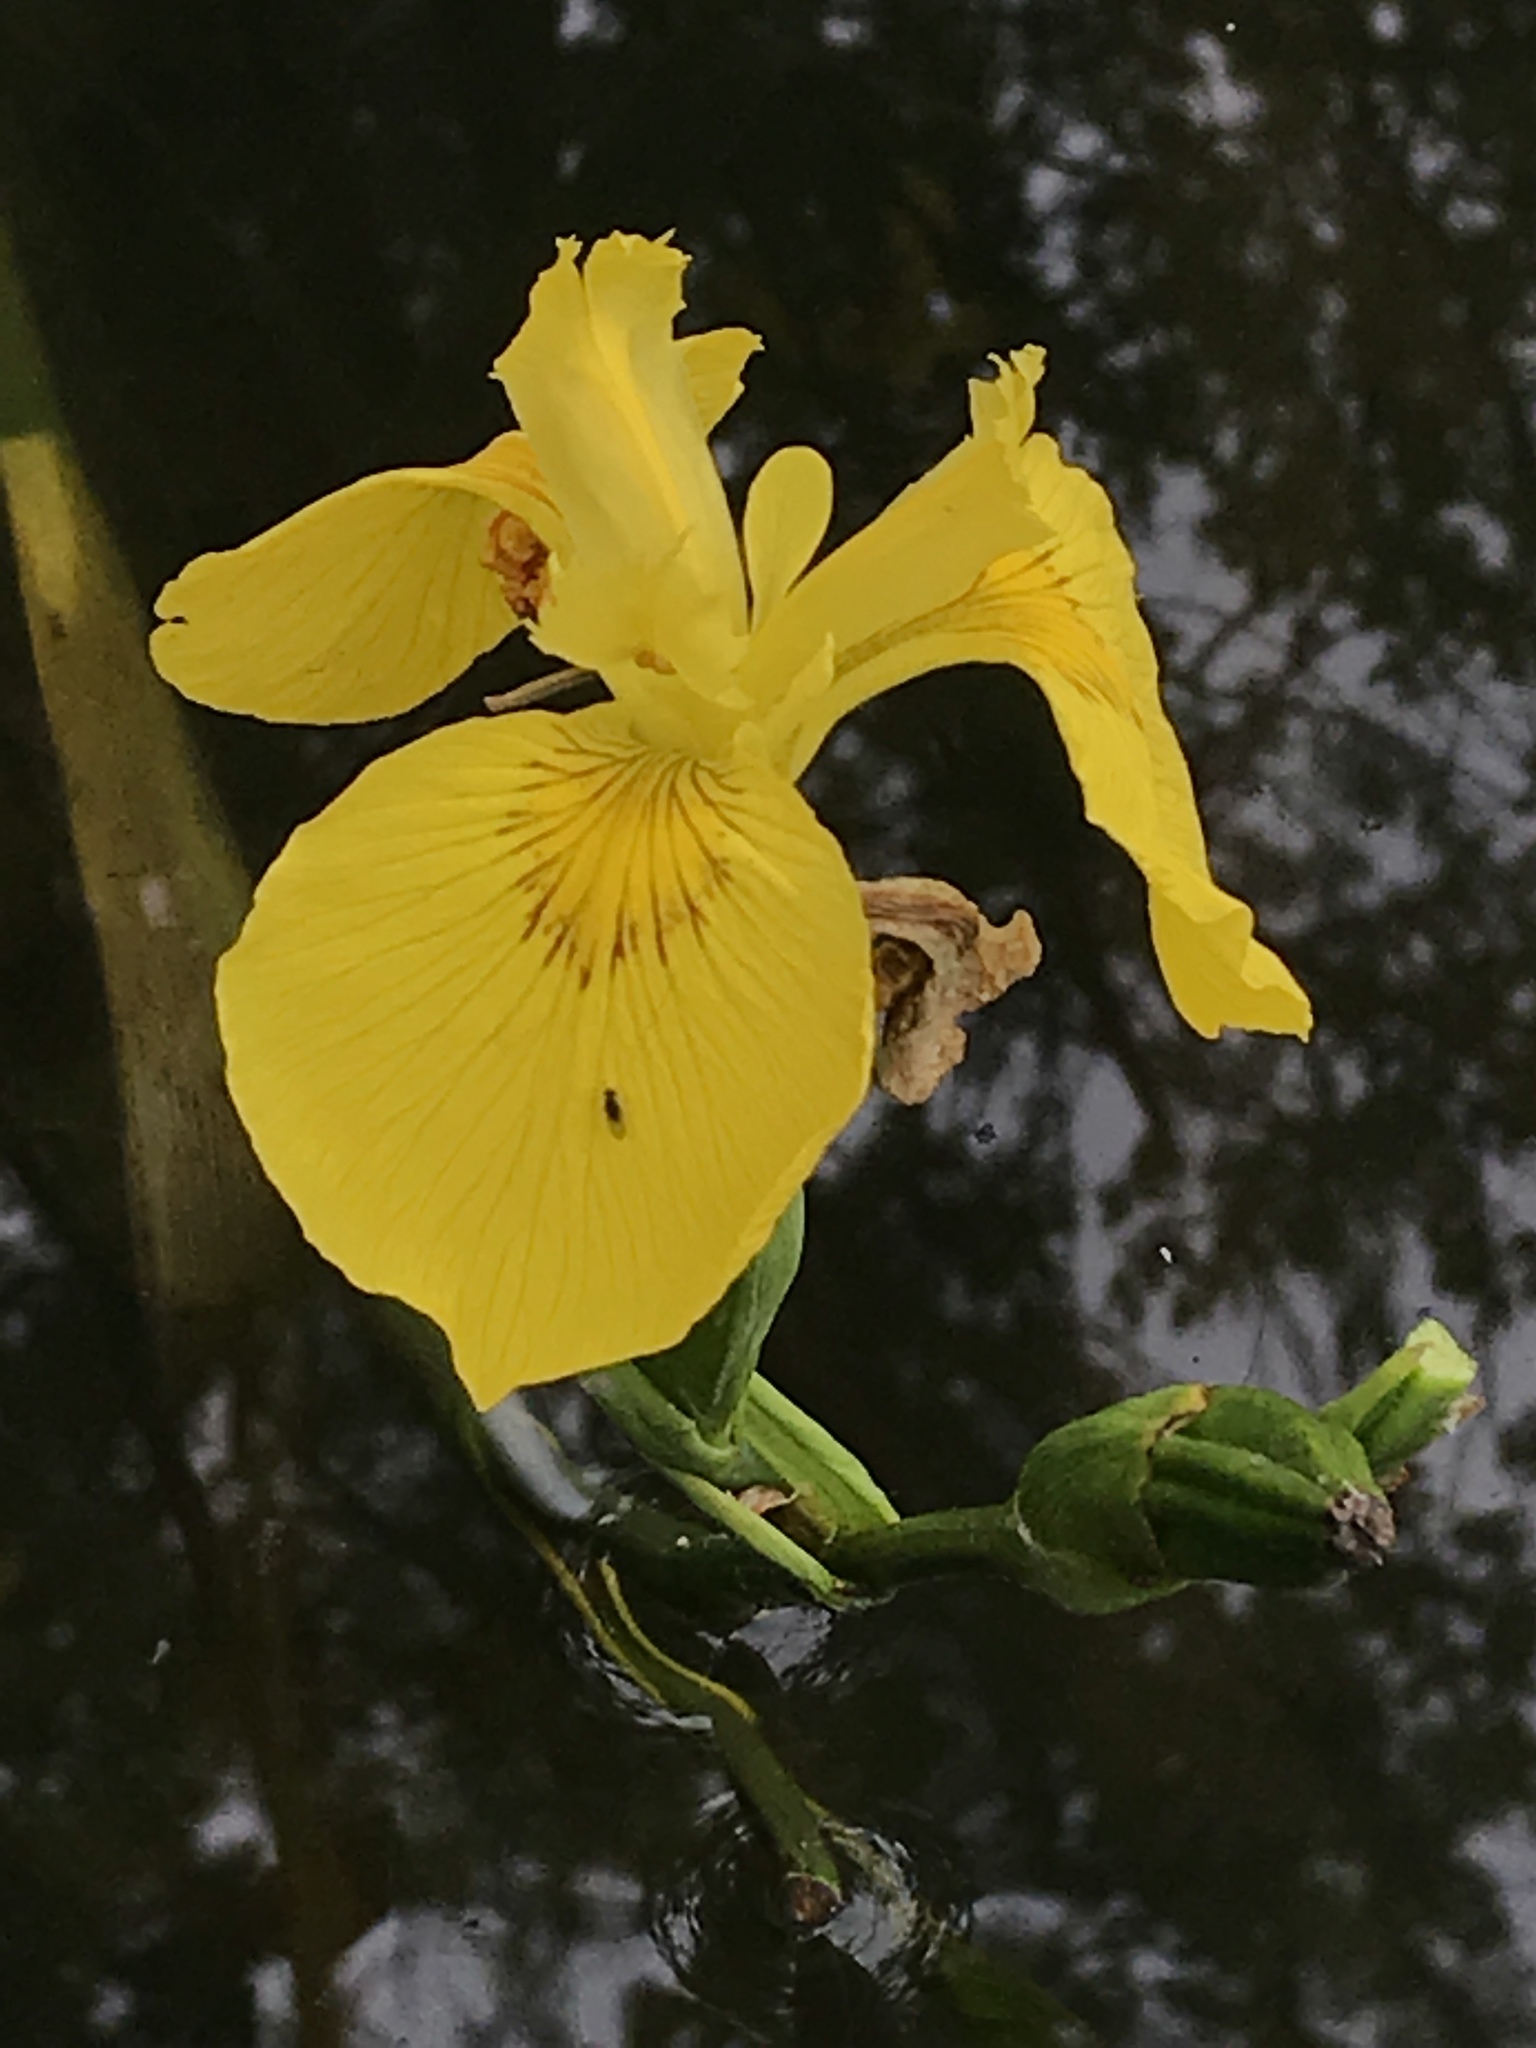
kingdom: Plantae
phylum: Tracheophyta
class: Liliopsida
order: Asparagales
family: Iridaceae
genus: Iris
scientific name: Iris pseudacorus
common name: Yellow flag
